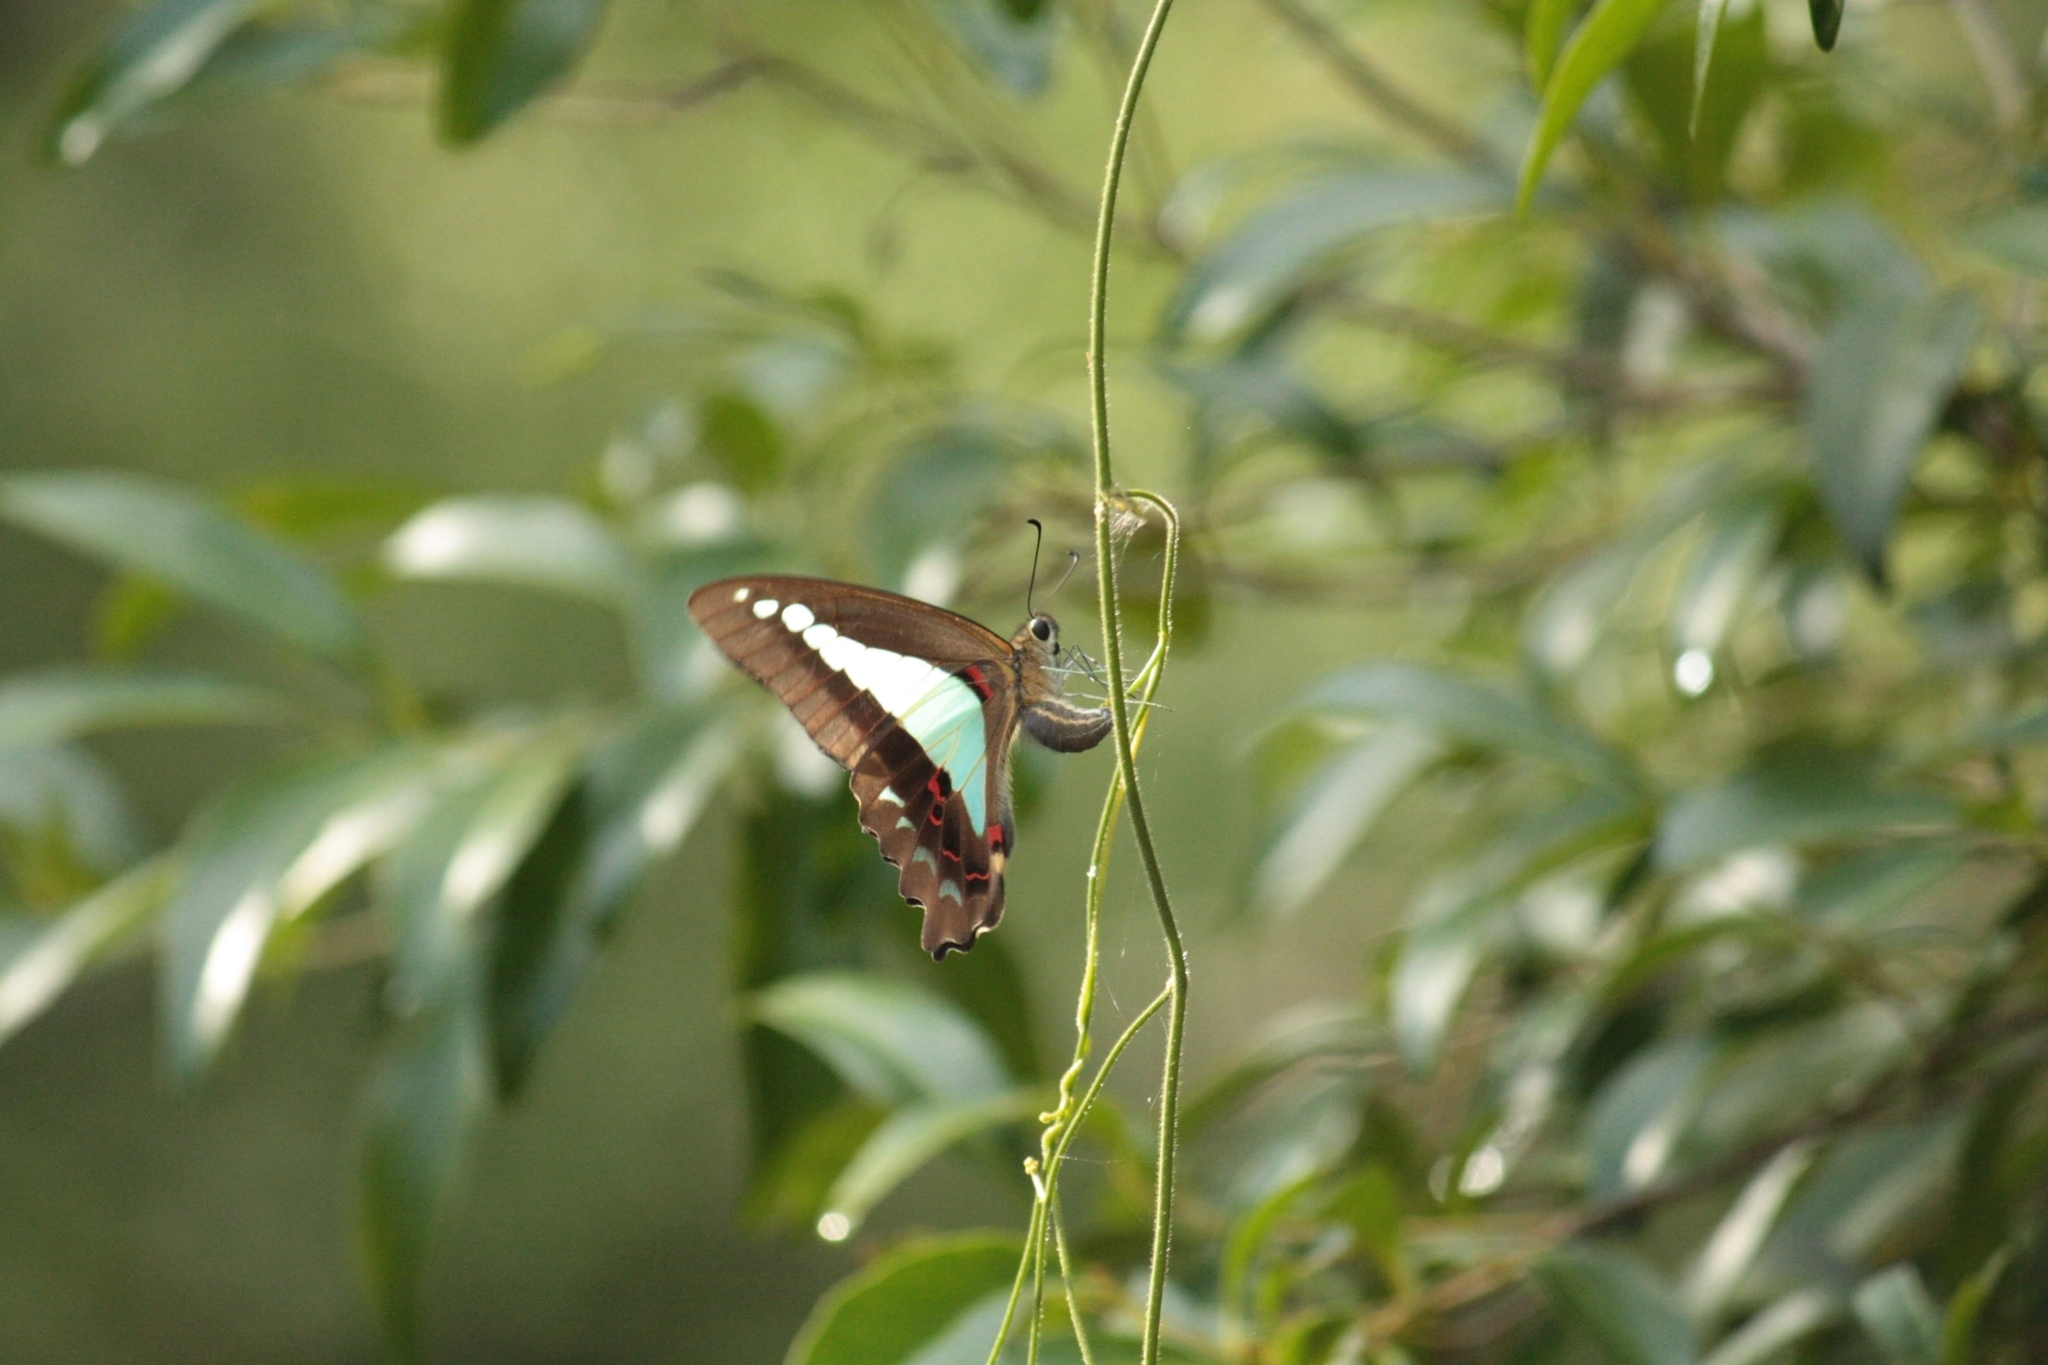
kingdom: Animalia
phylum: Arthropoda
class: Insecta
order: Lepidoptera
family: Papilionidae
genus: Graphium
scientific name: Graphium
